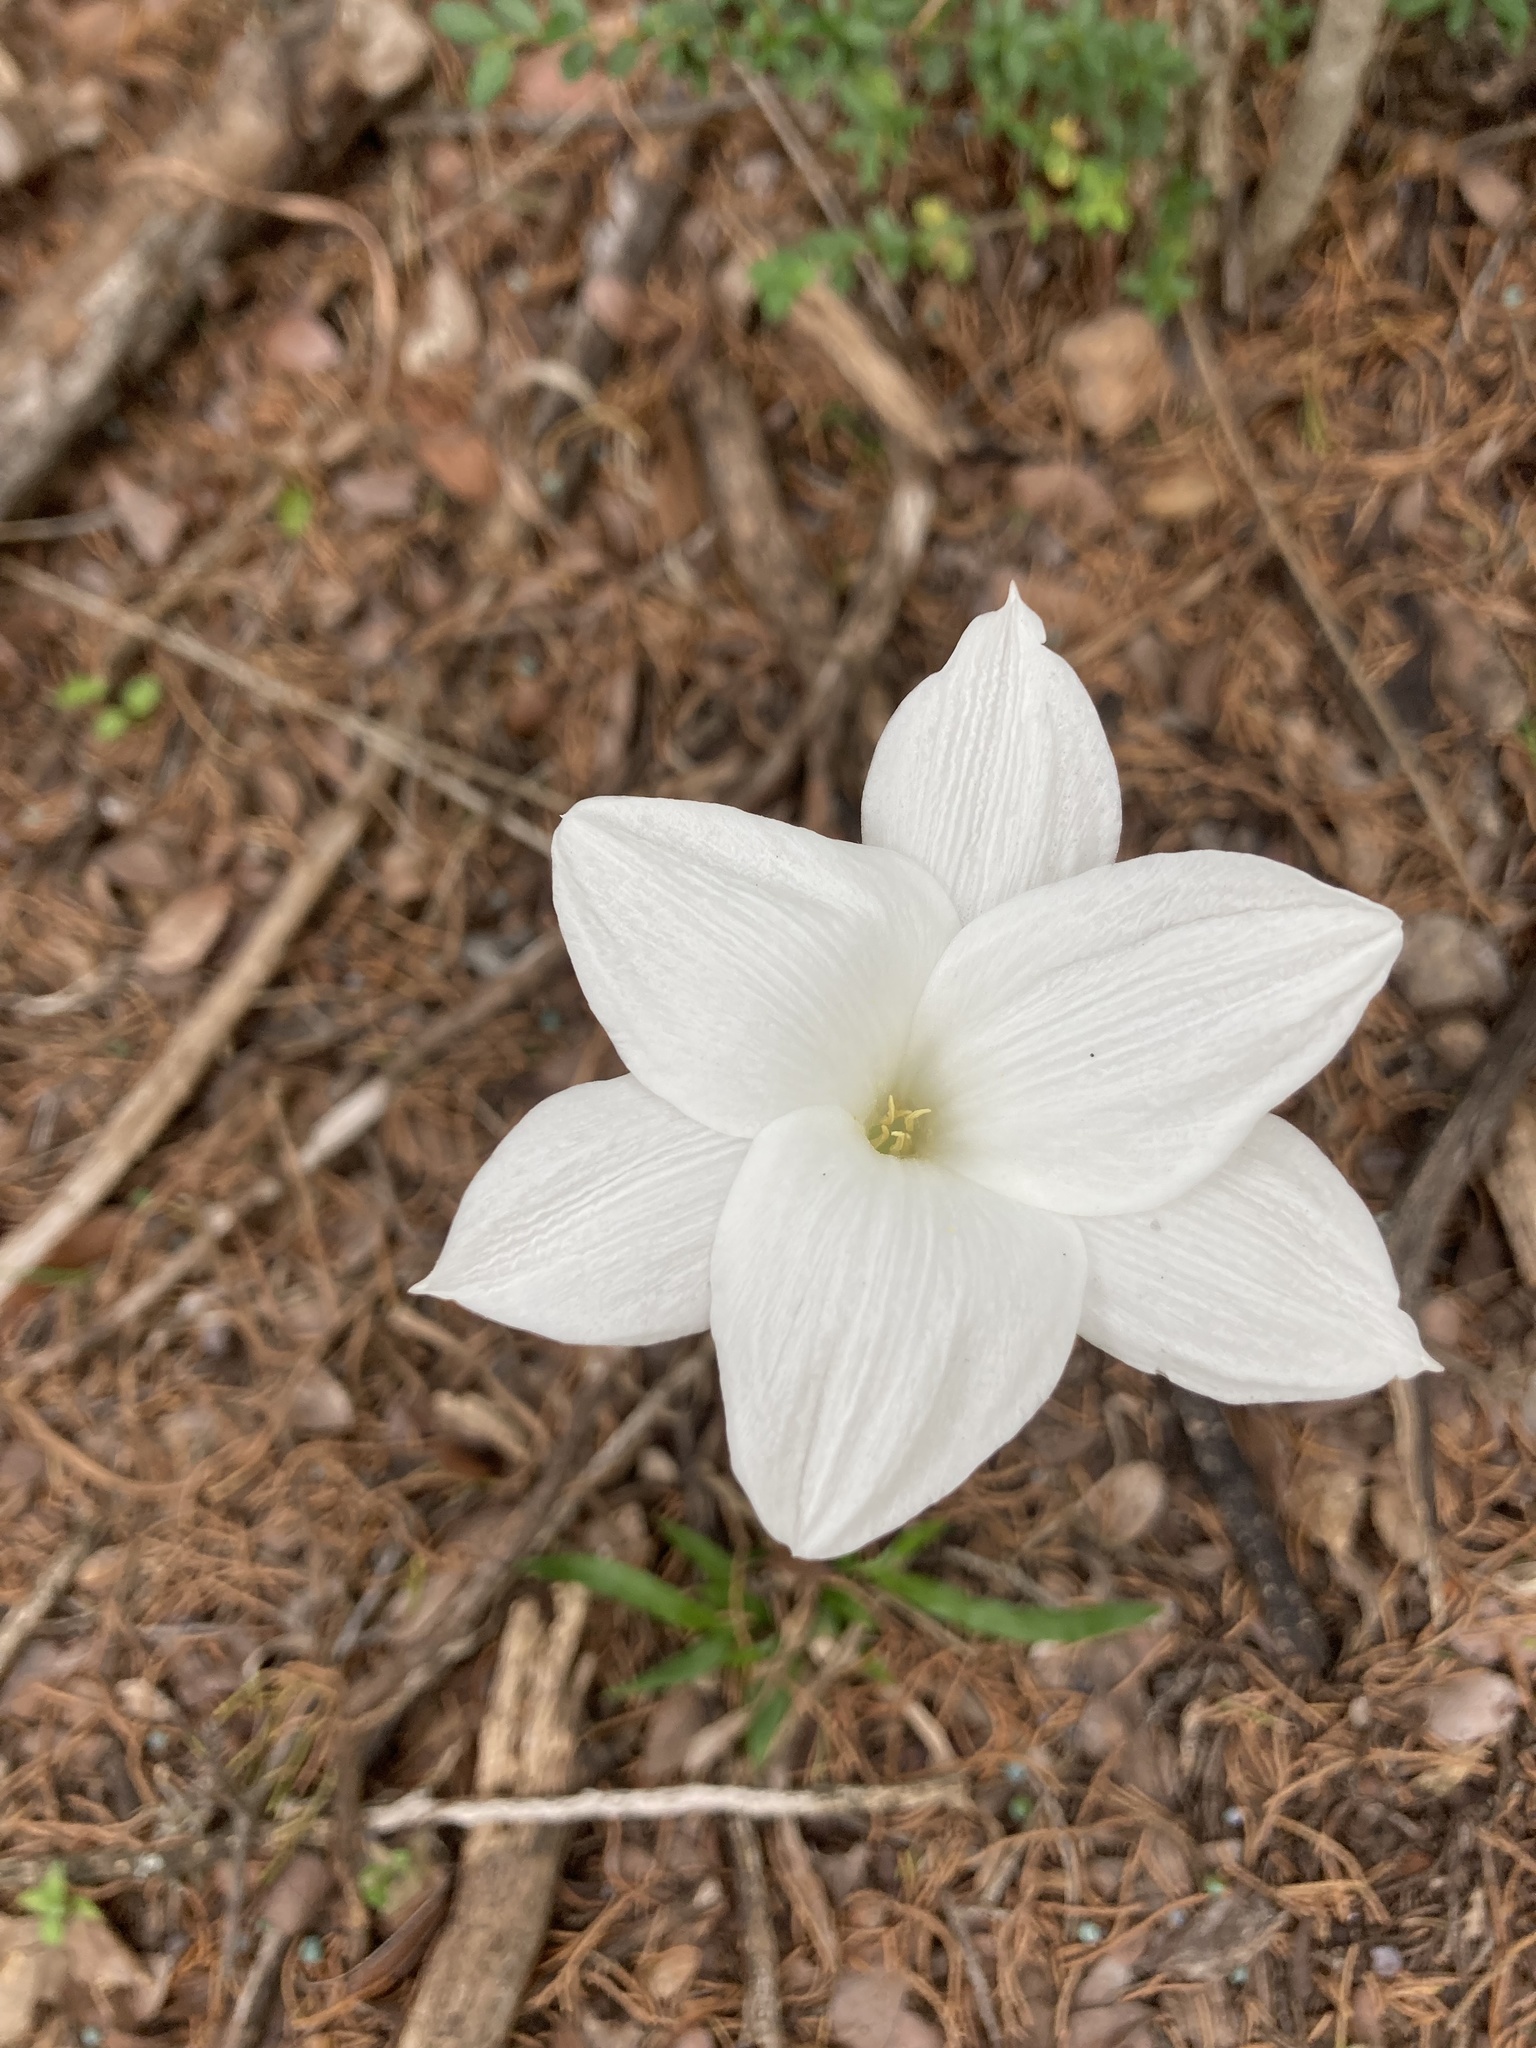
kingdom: Plantae
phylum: Tracheophyta
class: Liliopsida
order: Asparagales
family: Amaryllidaceae
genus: Zephyranthes
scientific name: Zephyranthes drummondii
